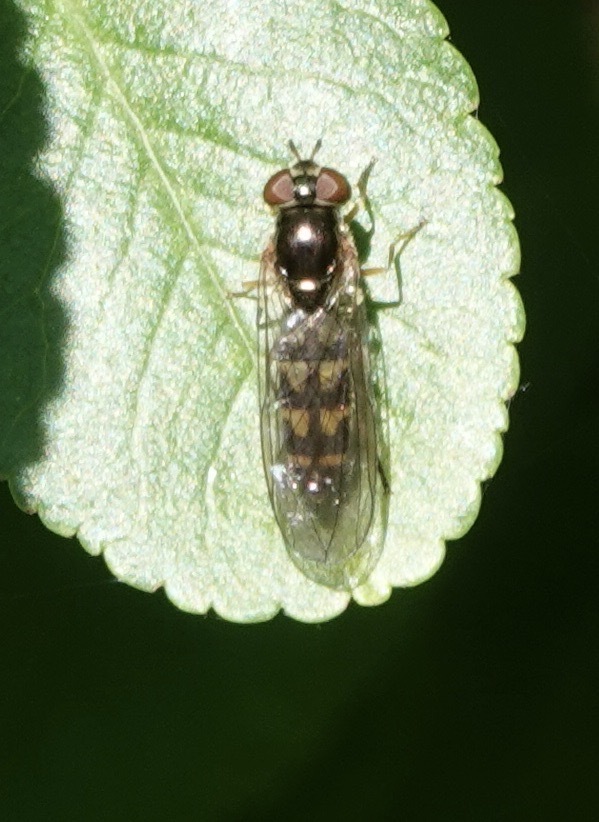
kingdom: Animalia
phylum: Arthropoda
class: Insecta
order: Diptera
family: Syrphidae
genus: Melanostoma
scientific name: Melanostoma scalare
